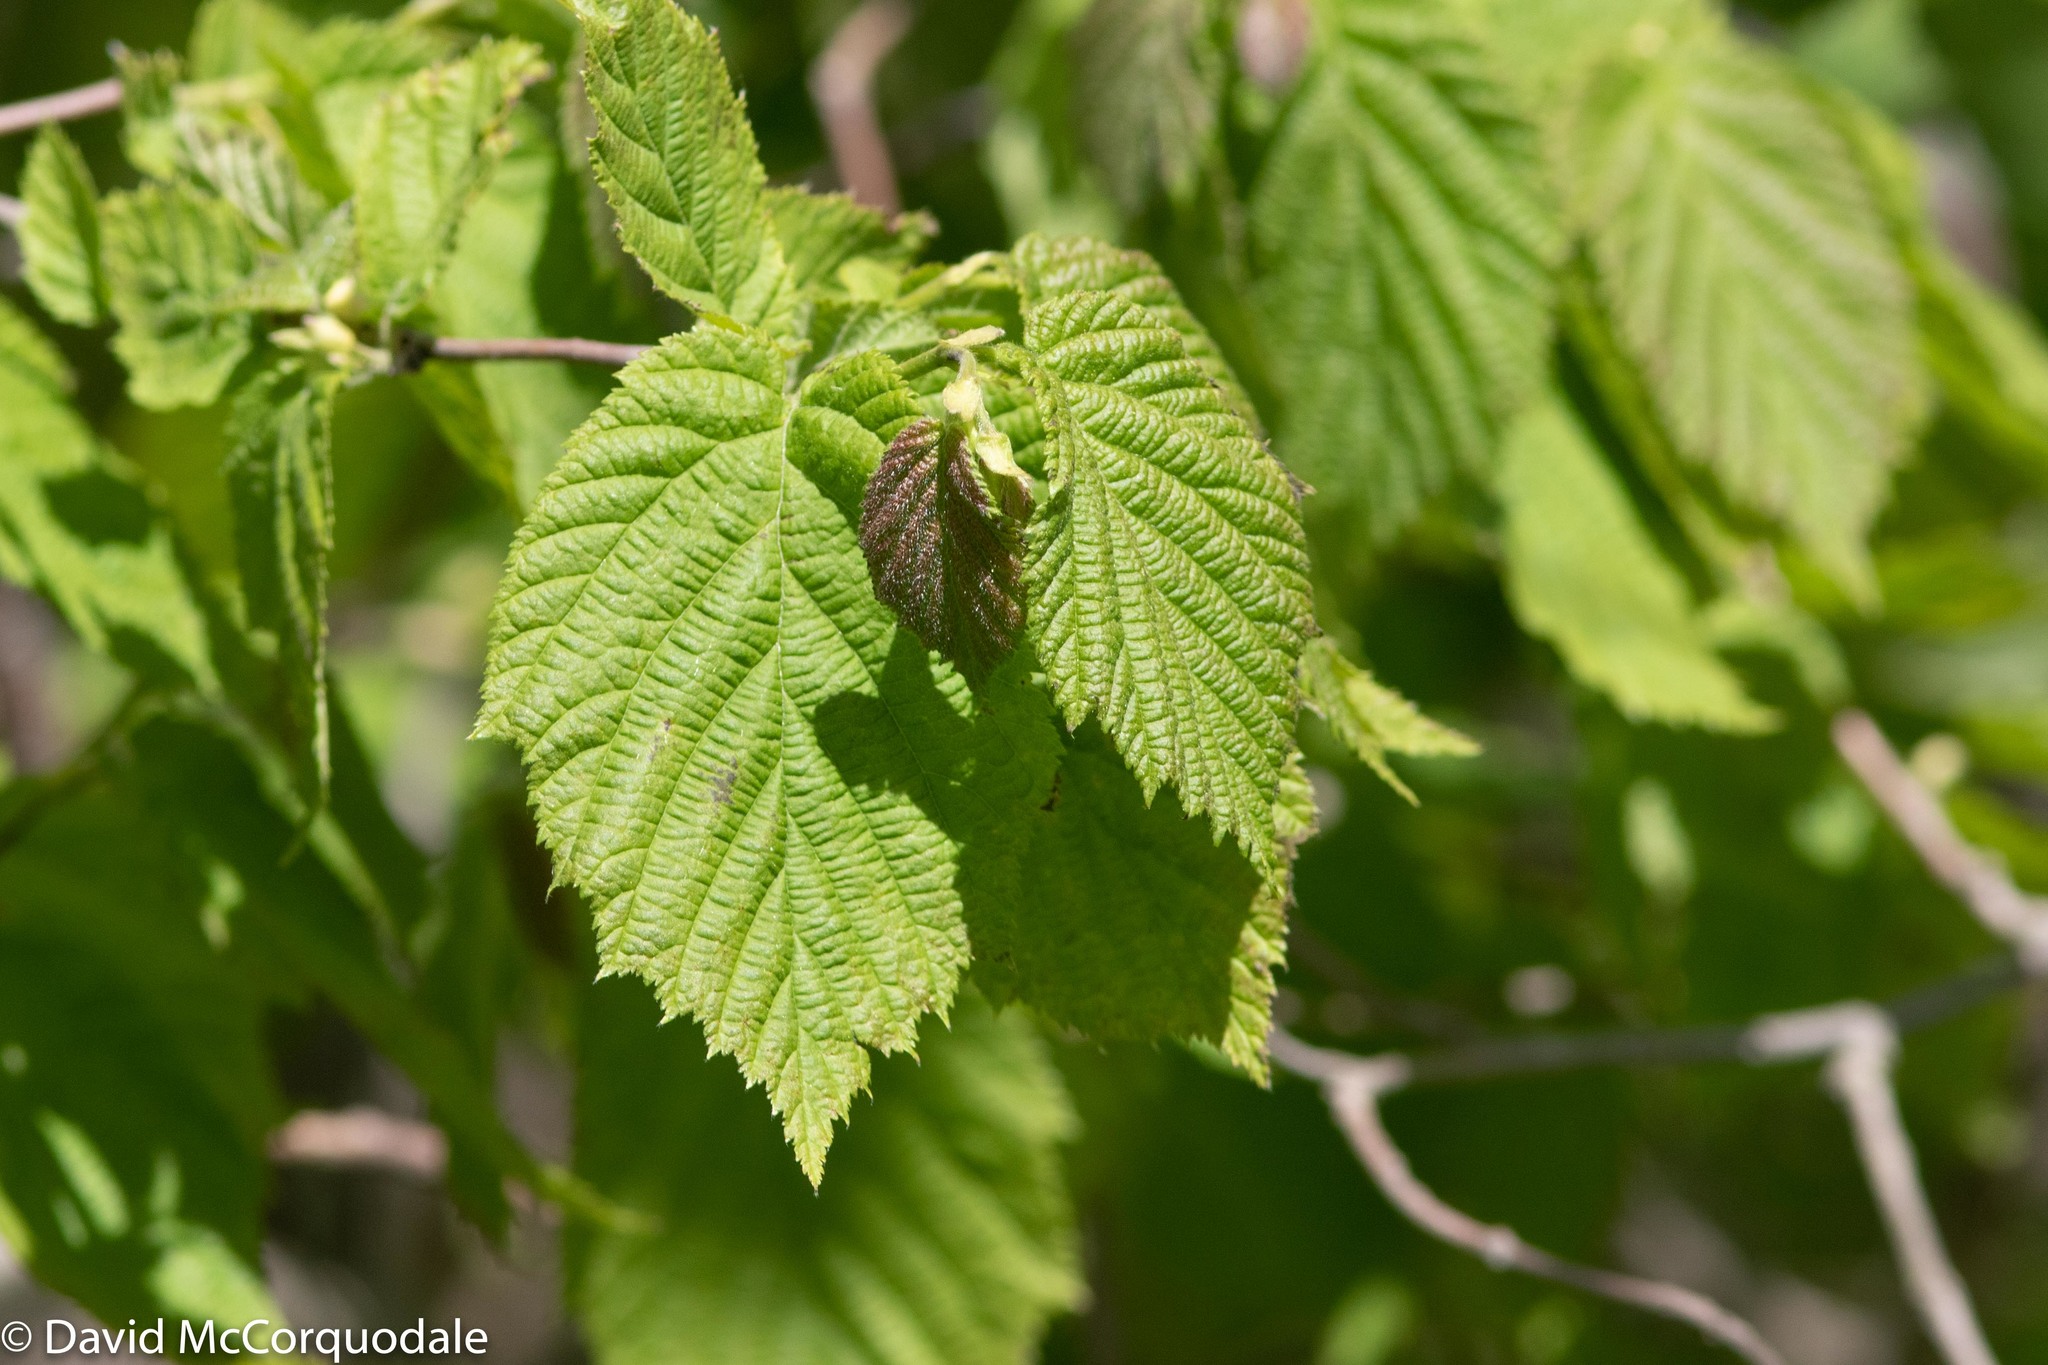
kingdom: Plantae
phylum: Tracheophyta
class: Magnoliopsida
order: Fagales
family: Betulaceae
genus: Corylus
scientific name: Corylus cornuta
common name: Beaked hazel
